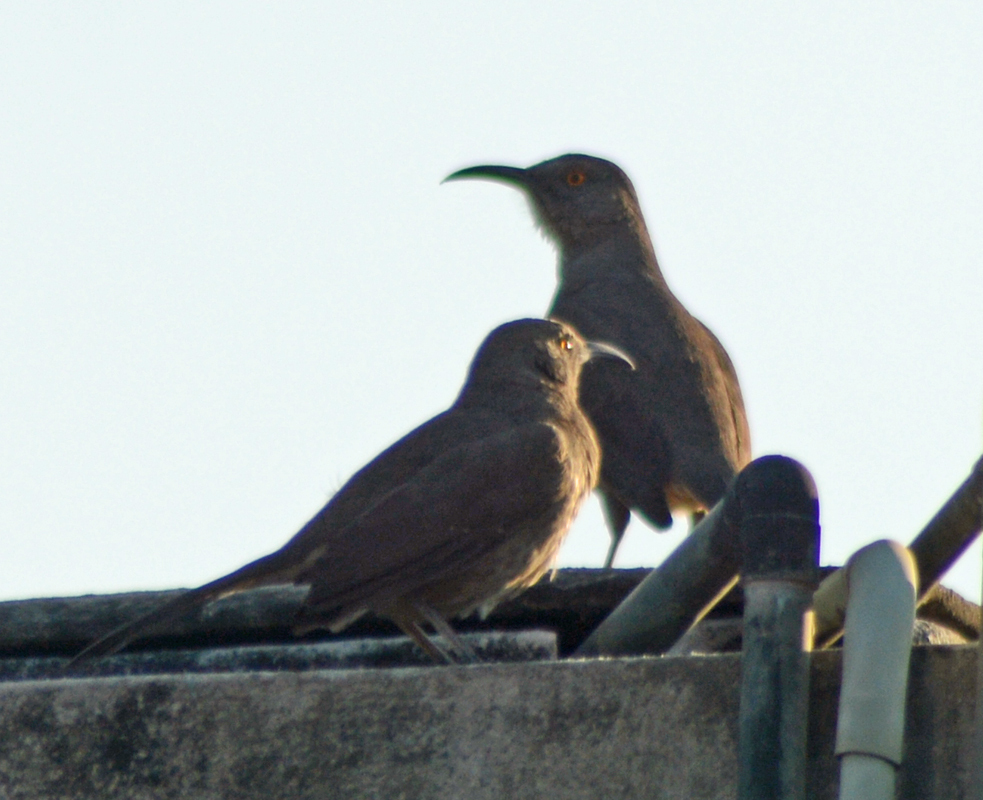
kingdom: Animalia
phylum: Chordata
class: Aves
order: Passeriformes
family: Mimidae
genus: Toxostoma
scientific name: Toxostoma curvirostre
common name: Curve-billed thrasher
